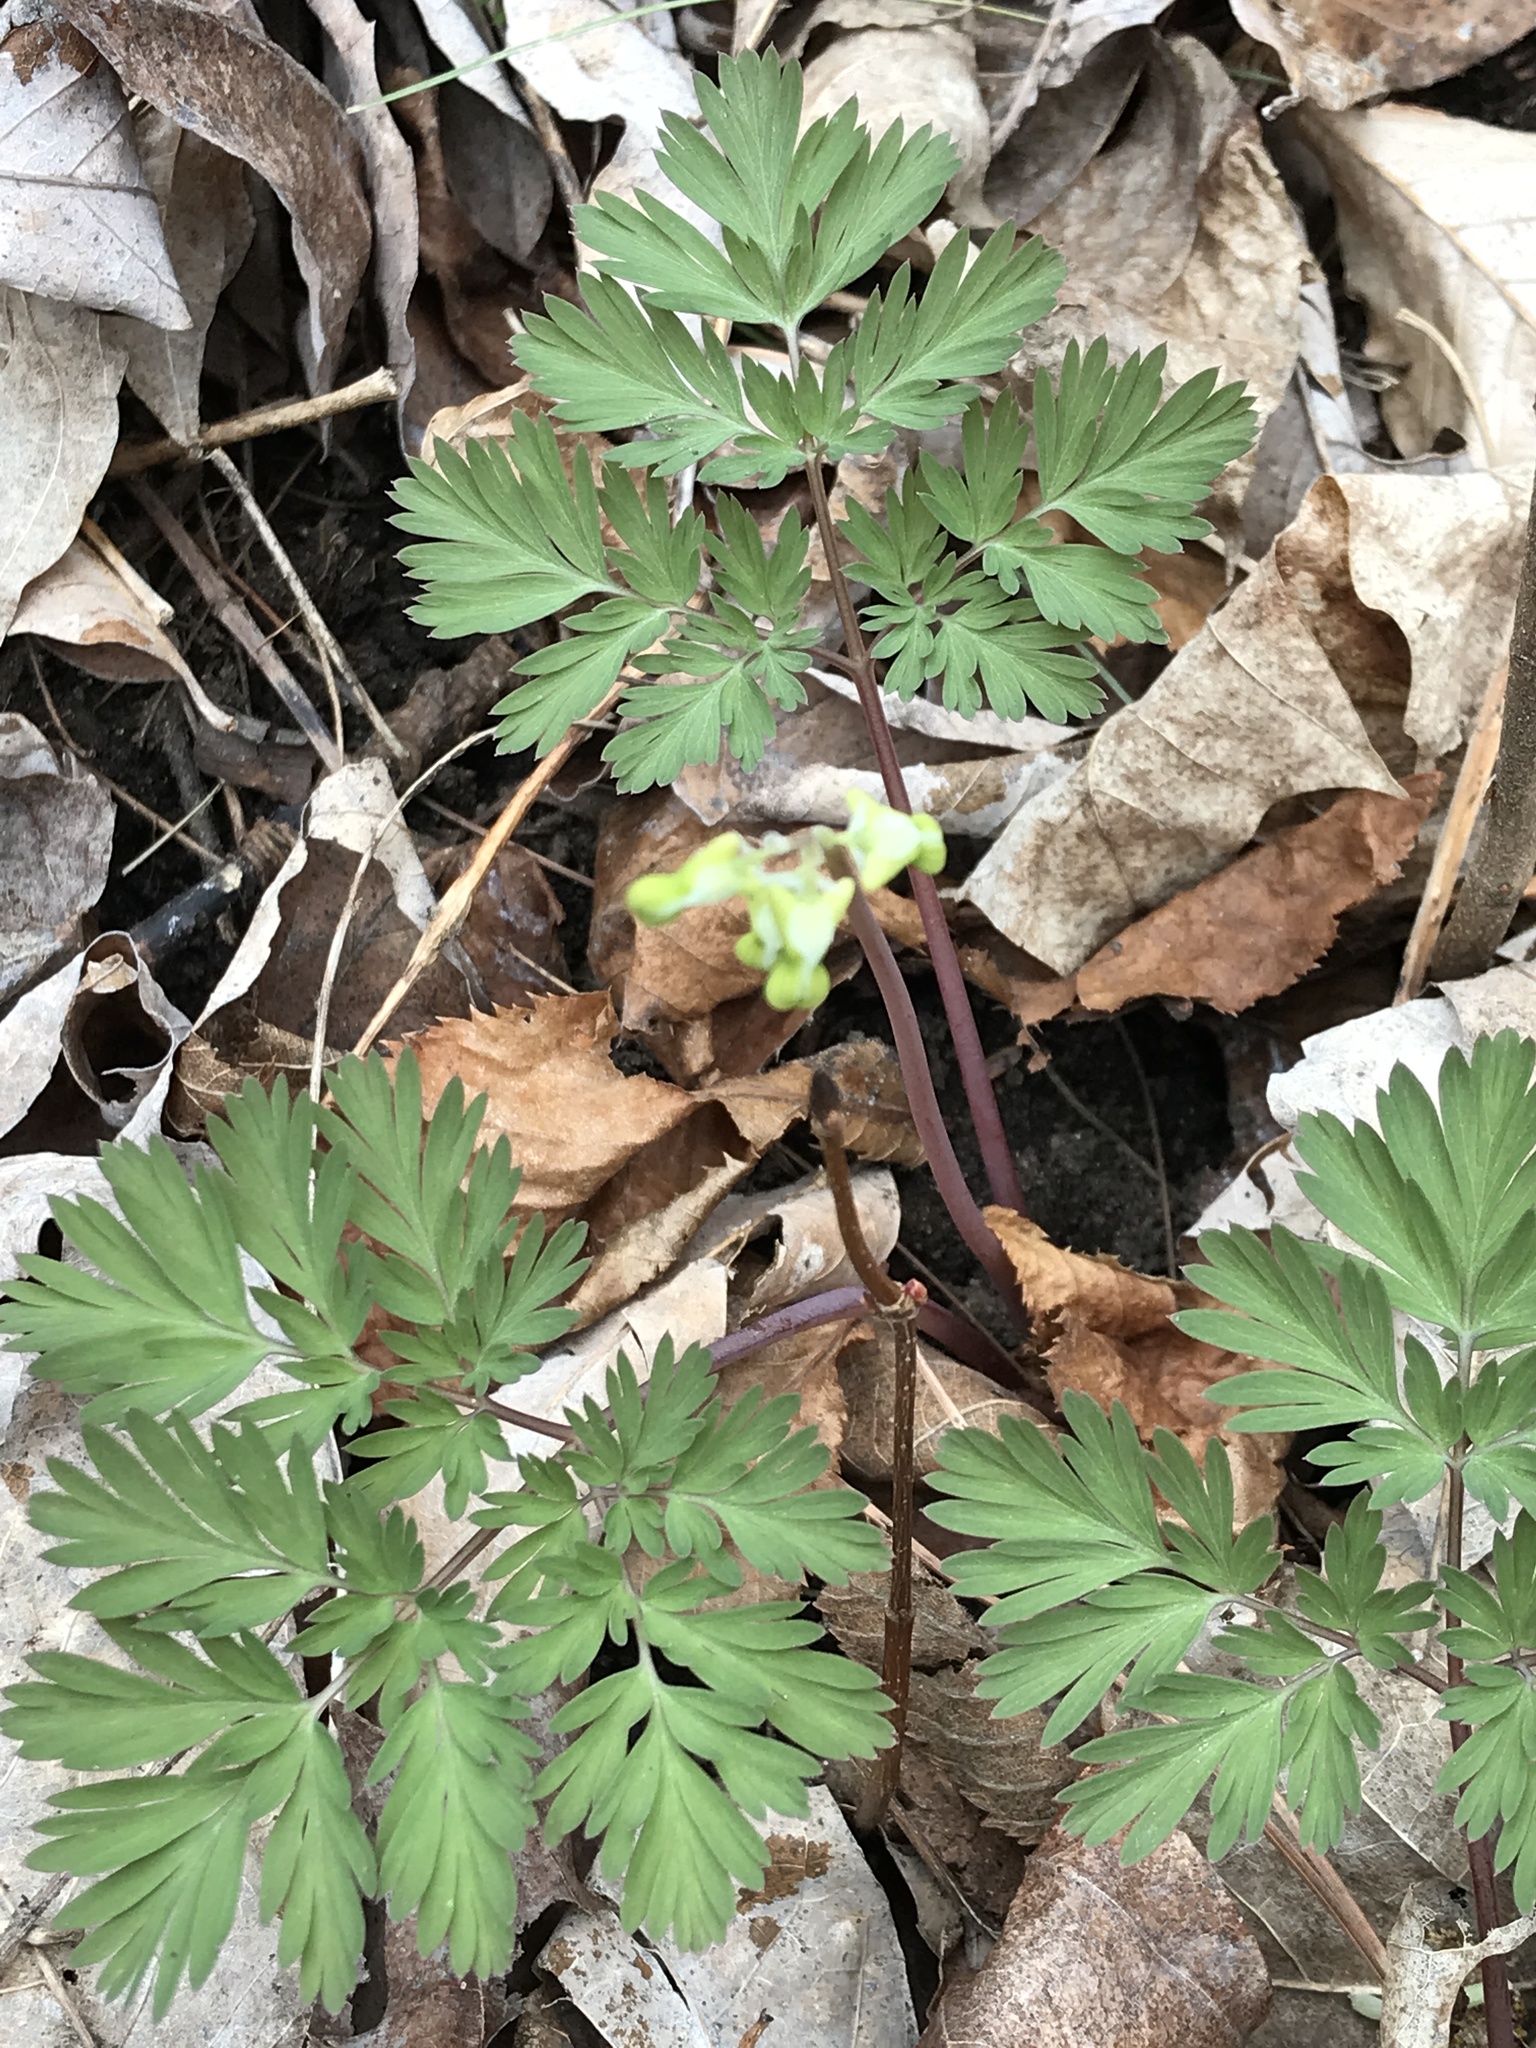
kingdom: Plantae
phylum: Tracheophyta
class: Magnoliopsida
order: Ranunculales
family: Papaveraceae
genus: Dicentra
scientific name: Dicentra cucullaria
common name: Dutchman's breeches
